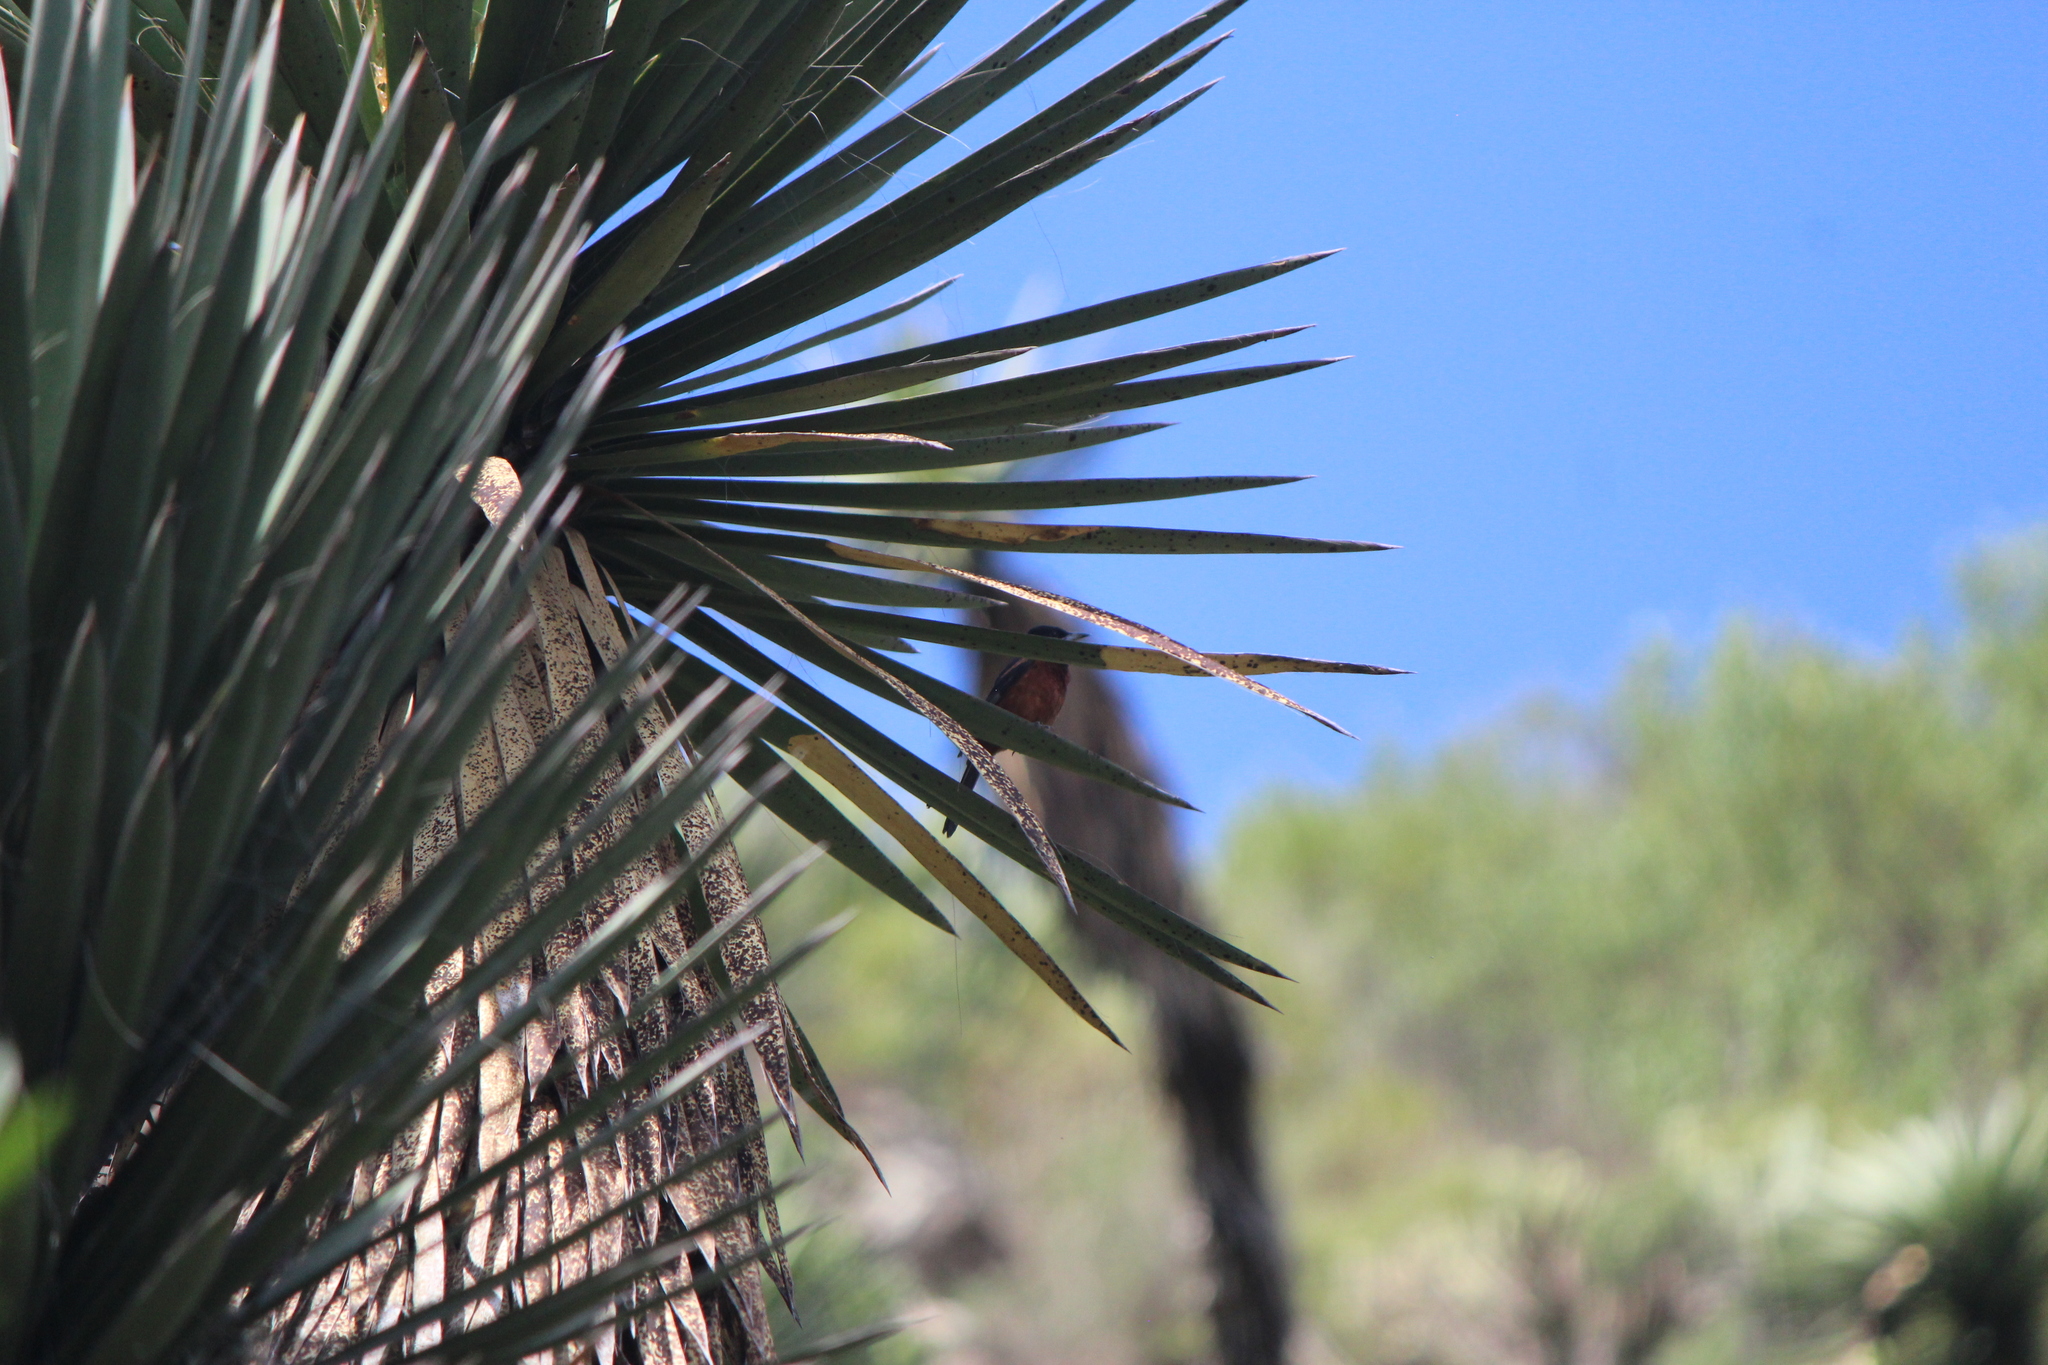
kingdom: Animalia
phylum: Chordata
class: Aves
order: Passeriformes
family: Icteridae
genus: Icterus
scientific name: Icterus spurius
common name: Orchard oriole
